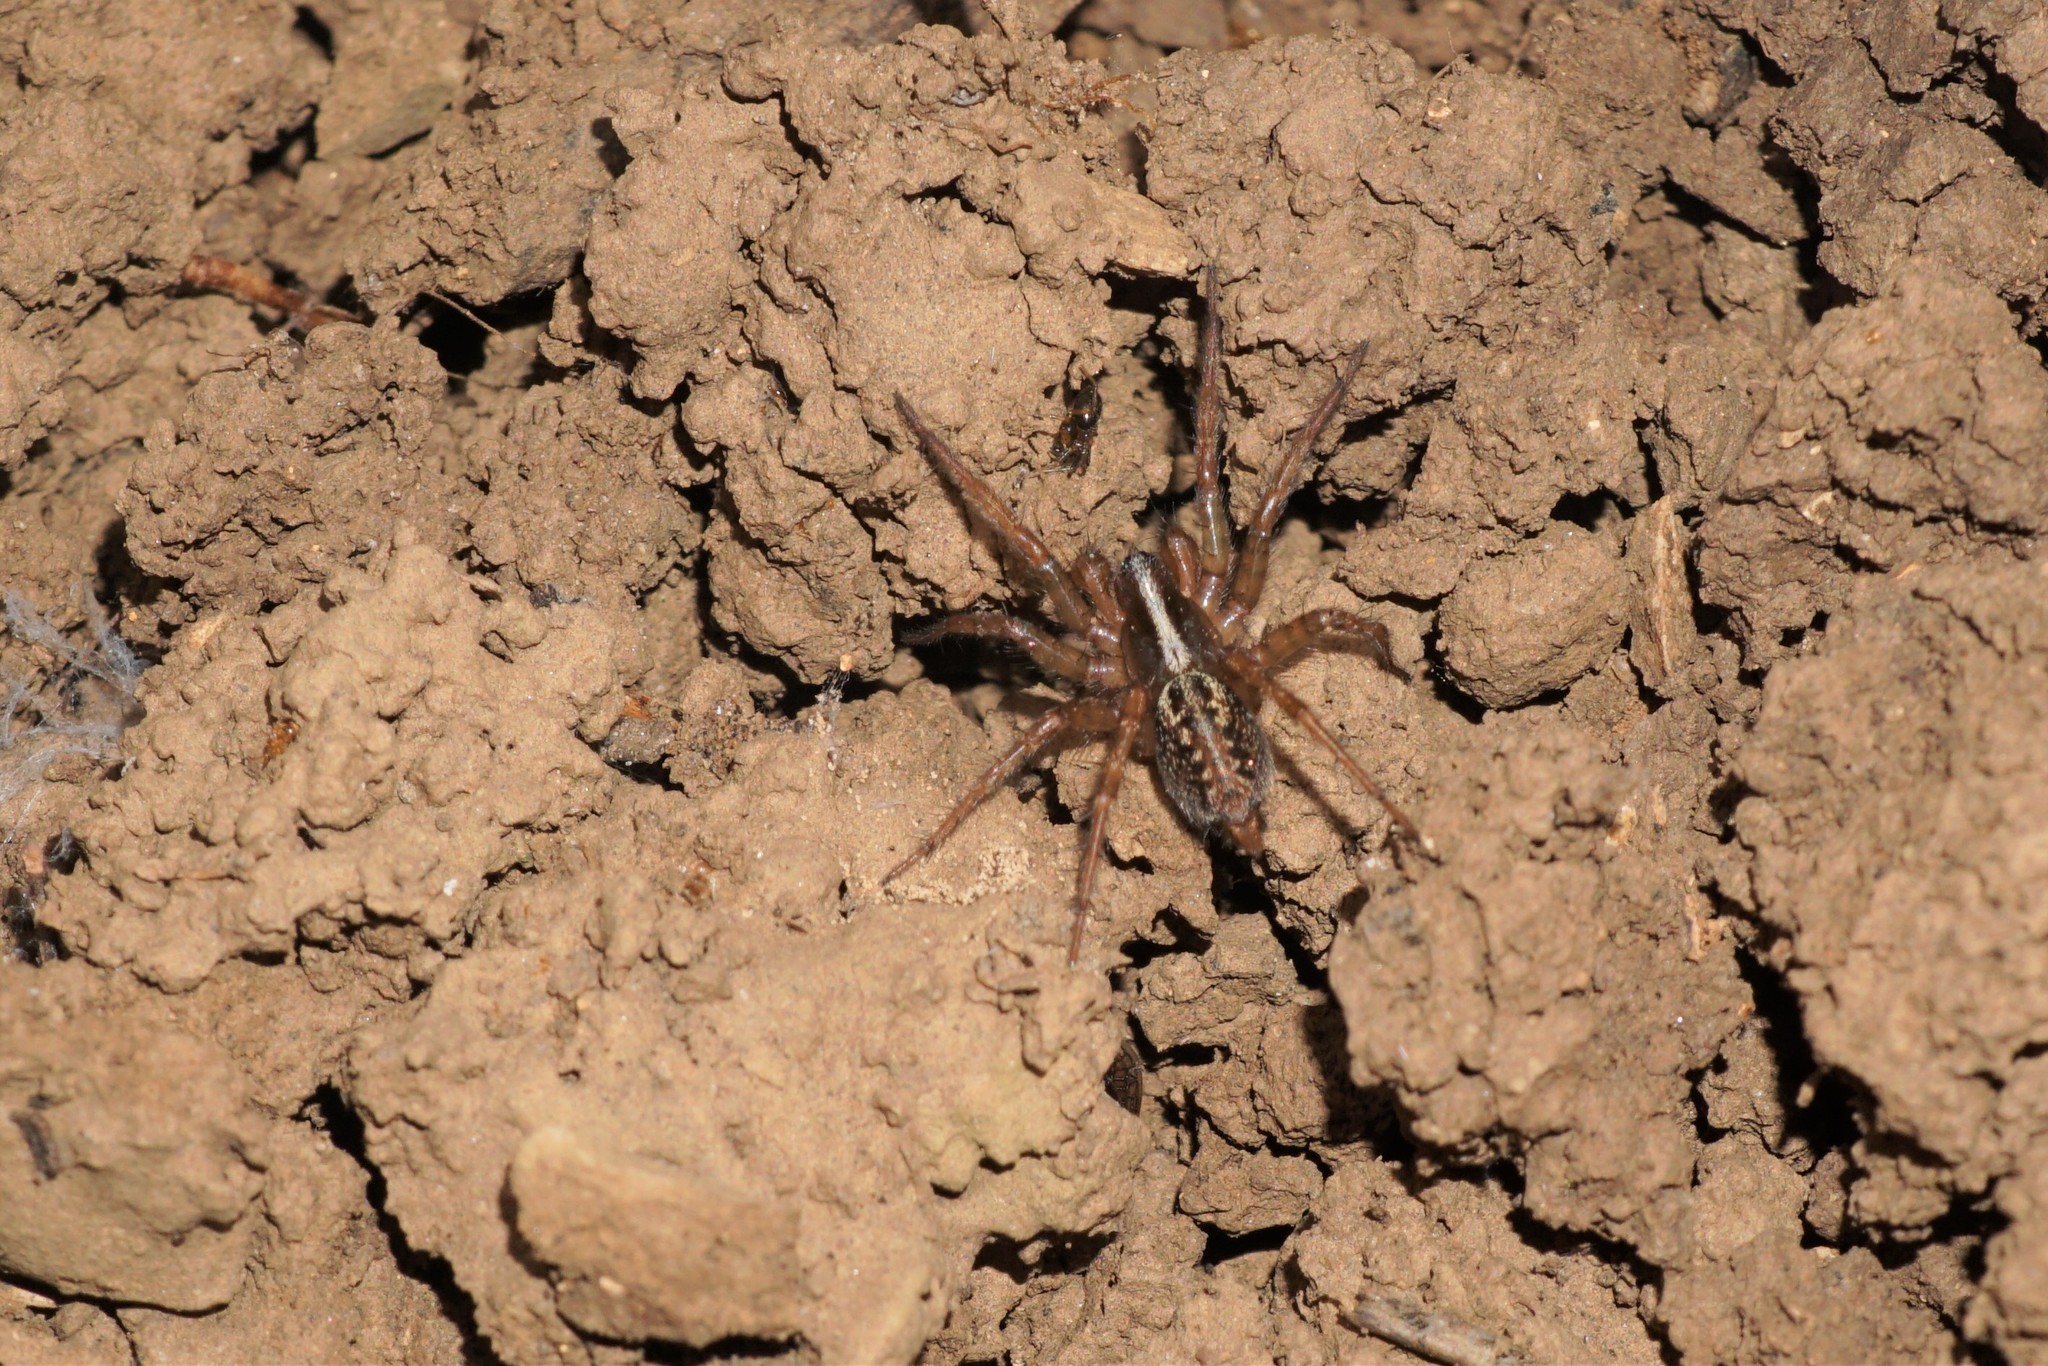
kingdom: Animalia
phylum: Arthropoda
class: Arachnida
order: Araneae
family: Agelenidae
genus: Maimuna
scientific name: Maimuna vestita
